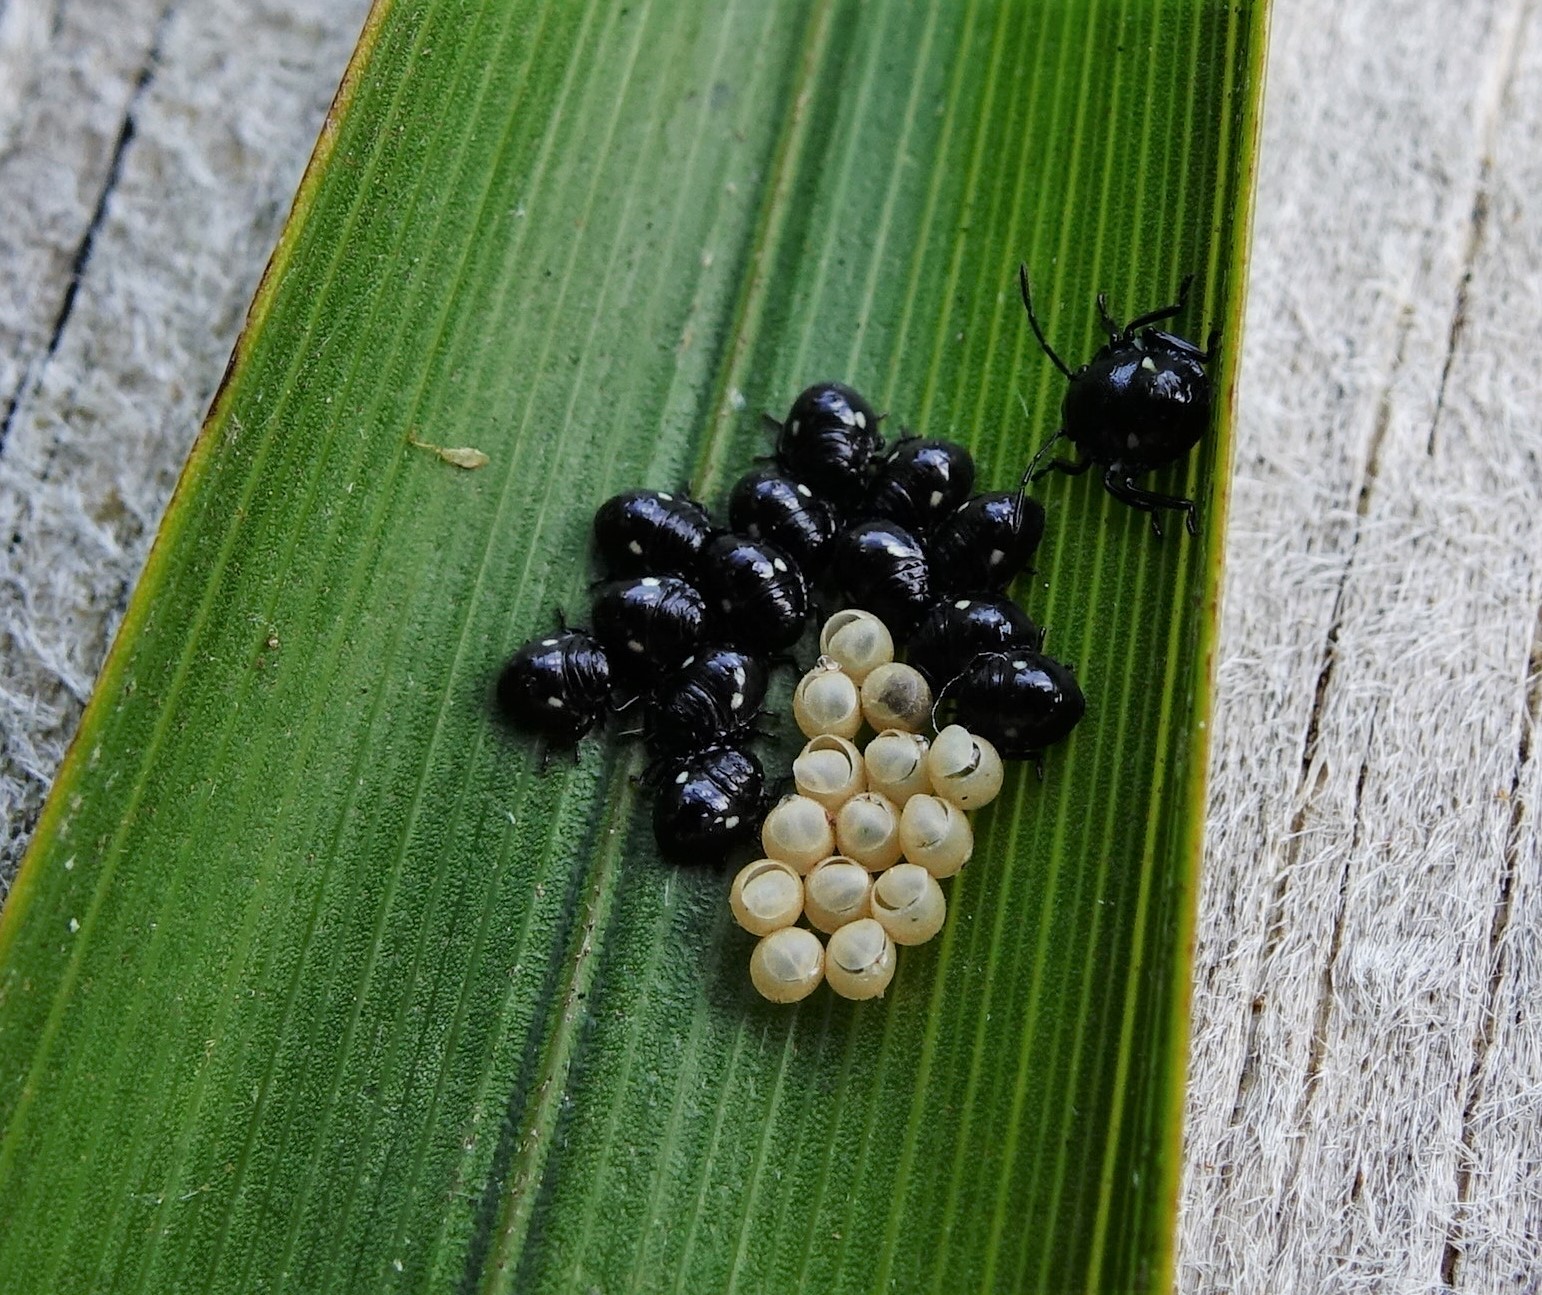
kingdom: Animalia
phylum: Arthropoda
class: Insecta
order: Hemiptera
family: Pentatomidae
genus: Glaucias
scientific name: Glaucias amyota
